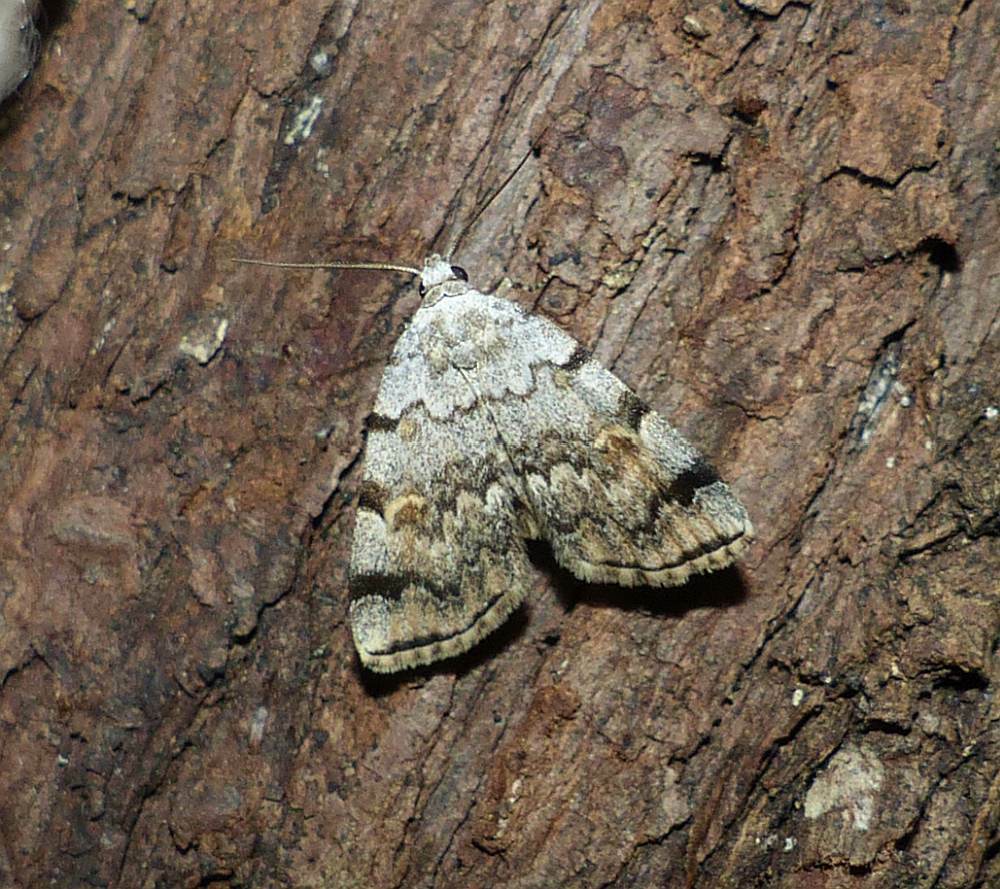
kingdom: Animalia
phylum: Arthropoda
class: Insecta
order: Lepidoptera
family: Erebidae
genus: Idia
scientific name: Idia americalis
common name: American idia moth
